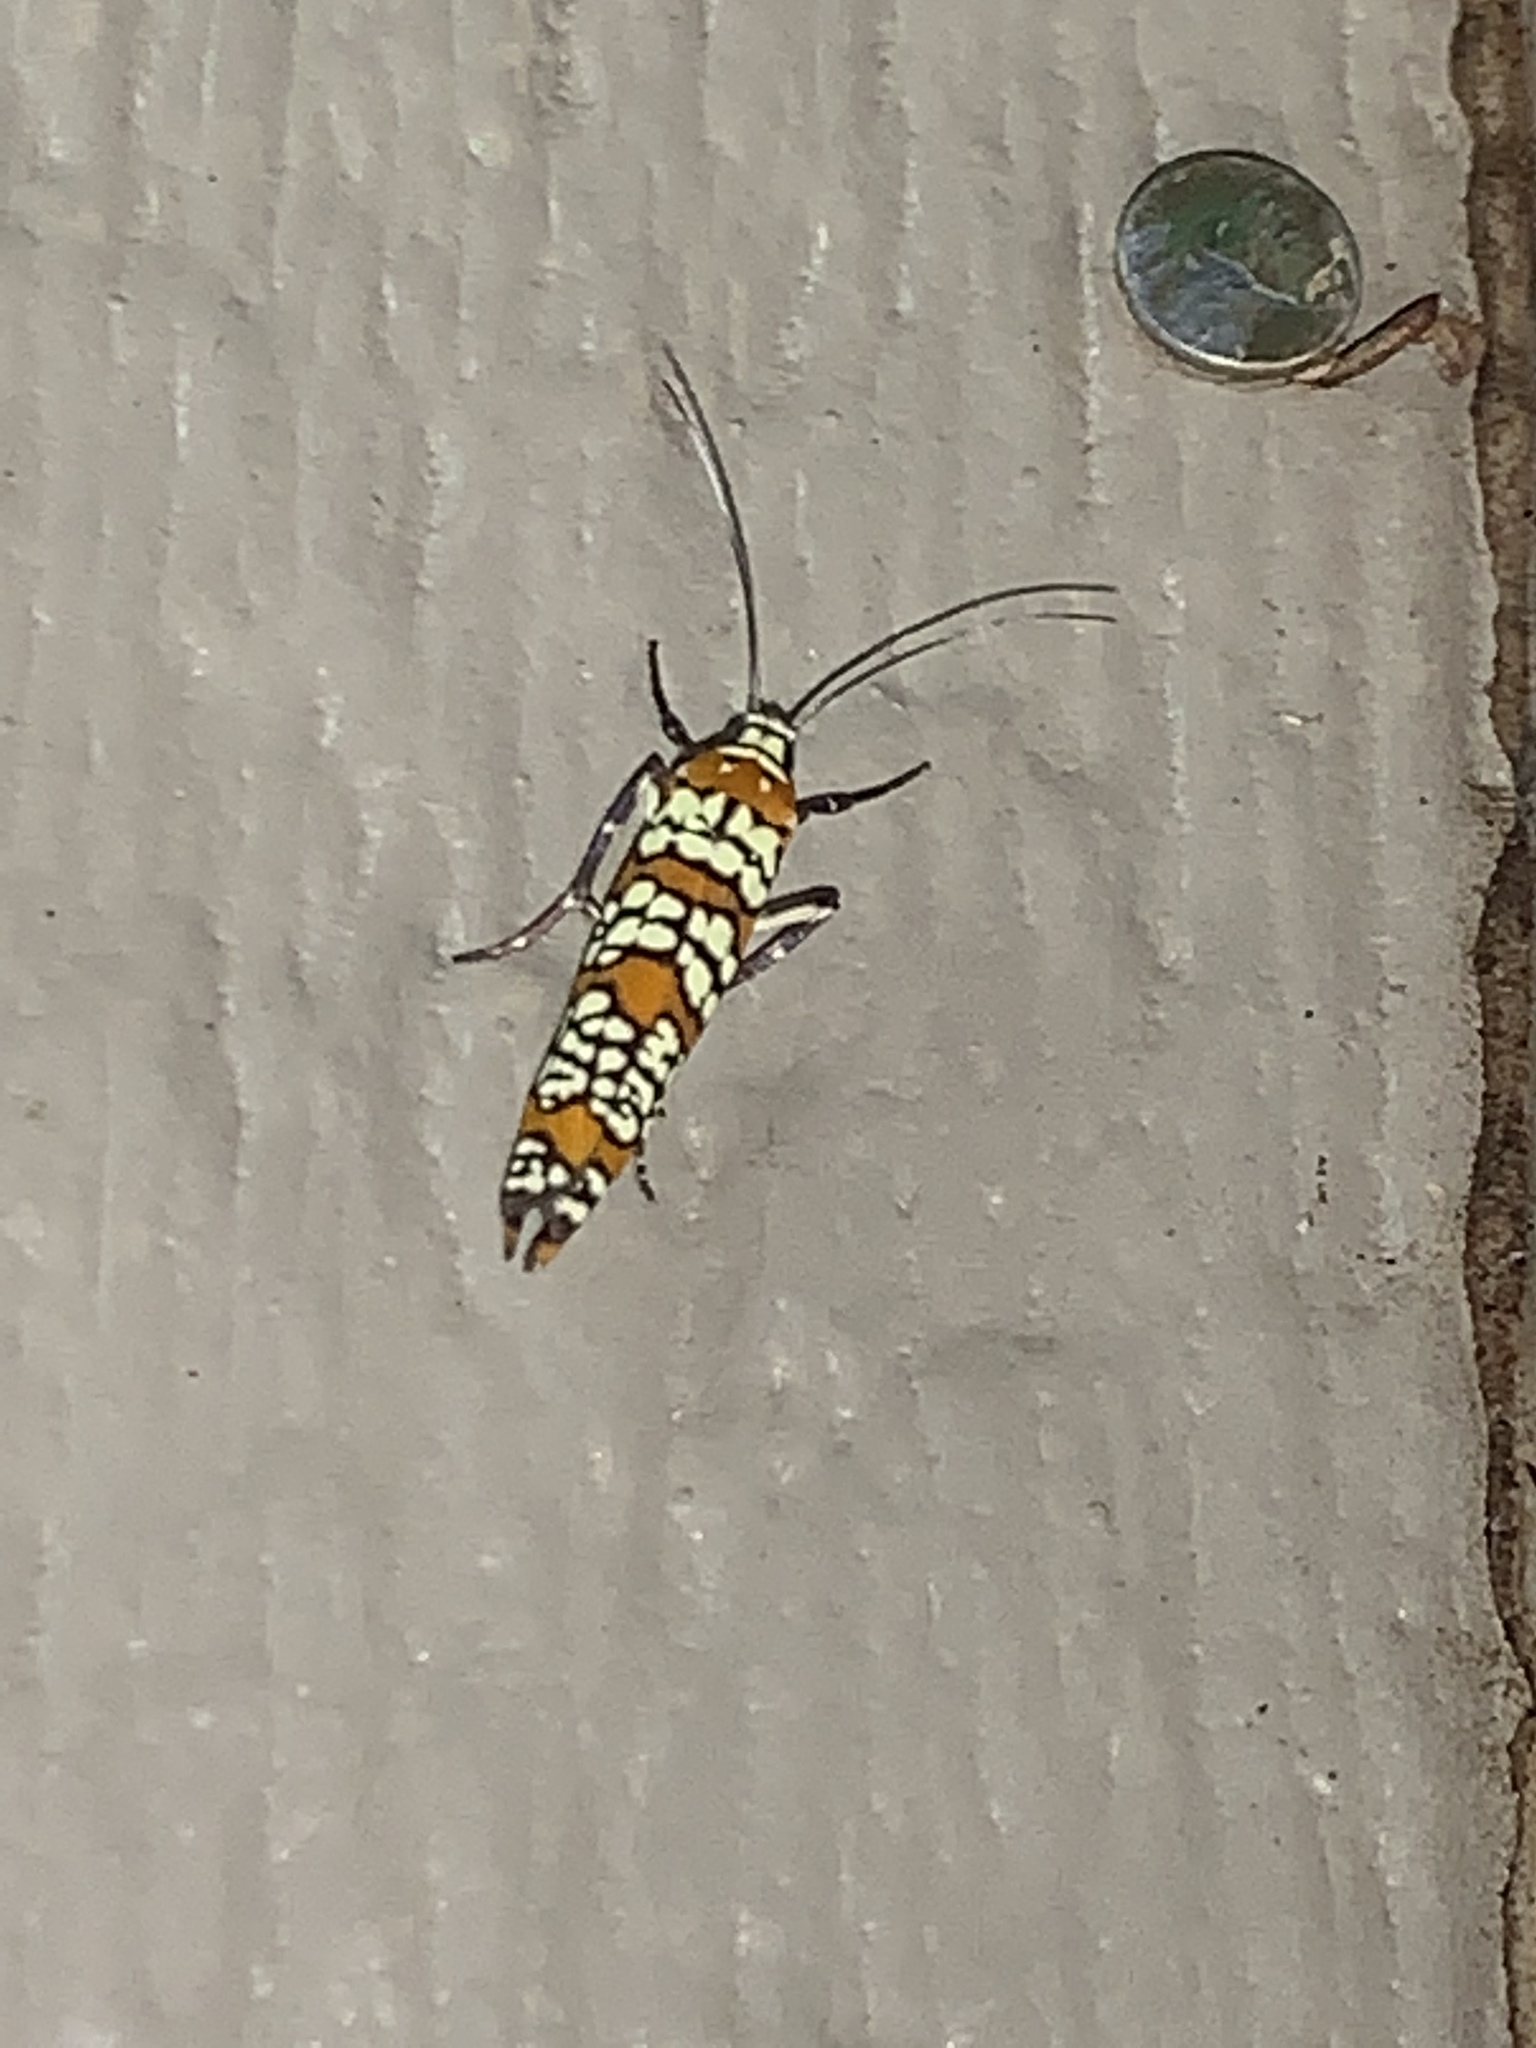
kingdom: Animalia
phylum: Arthropoda
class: Insecta
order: Lepidoptera
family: Attevidae
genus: Atteva
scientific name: Atteva punctella
